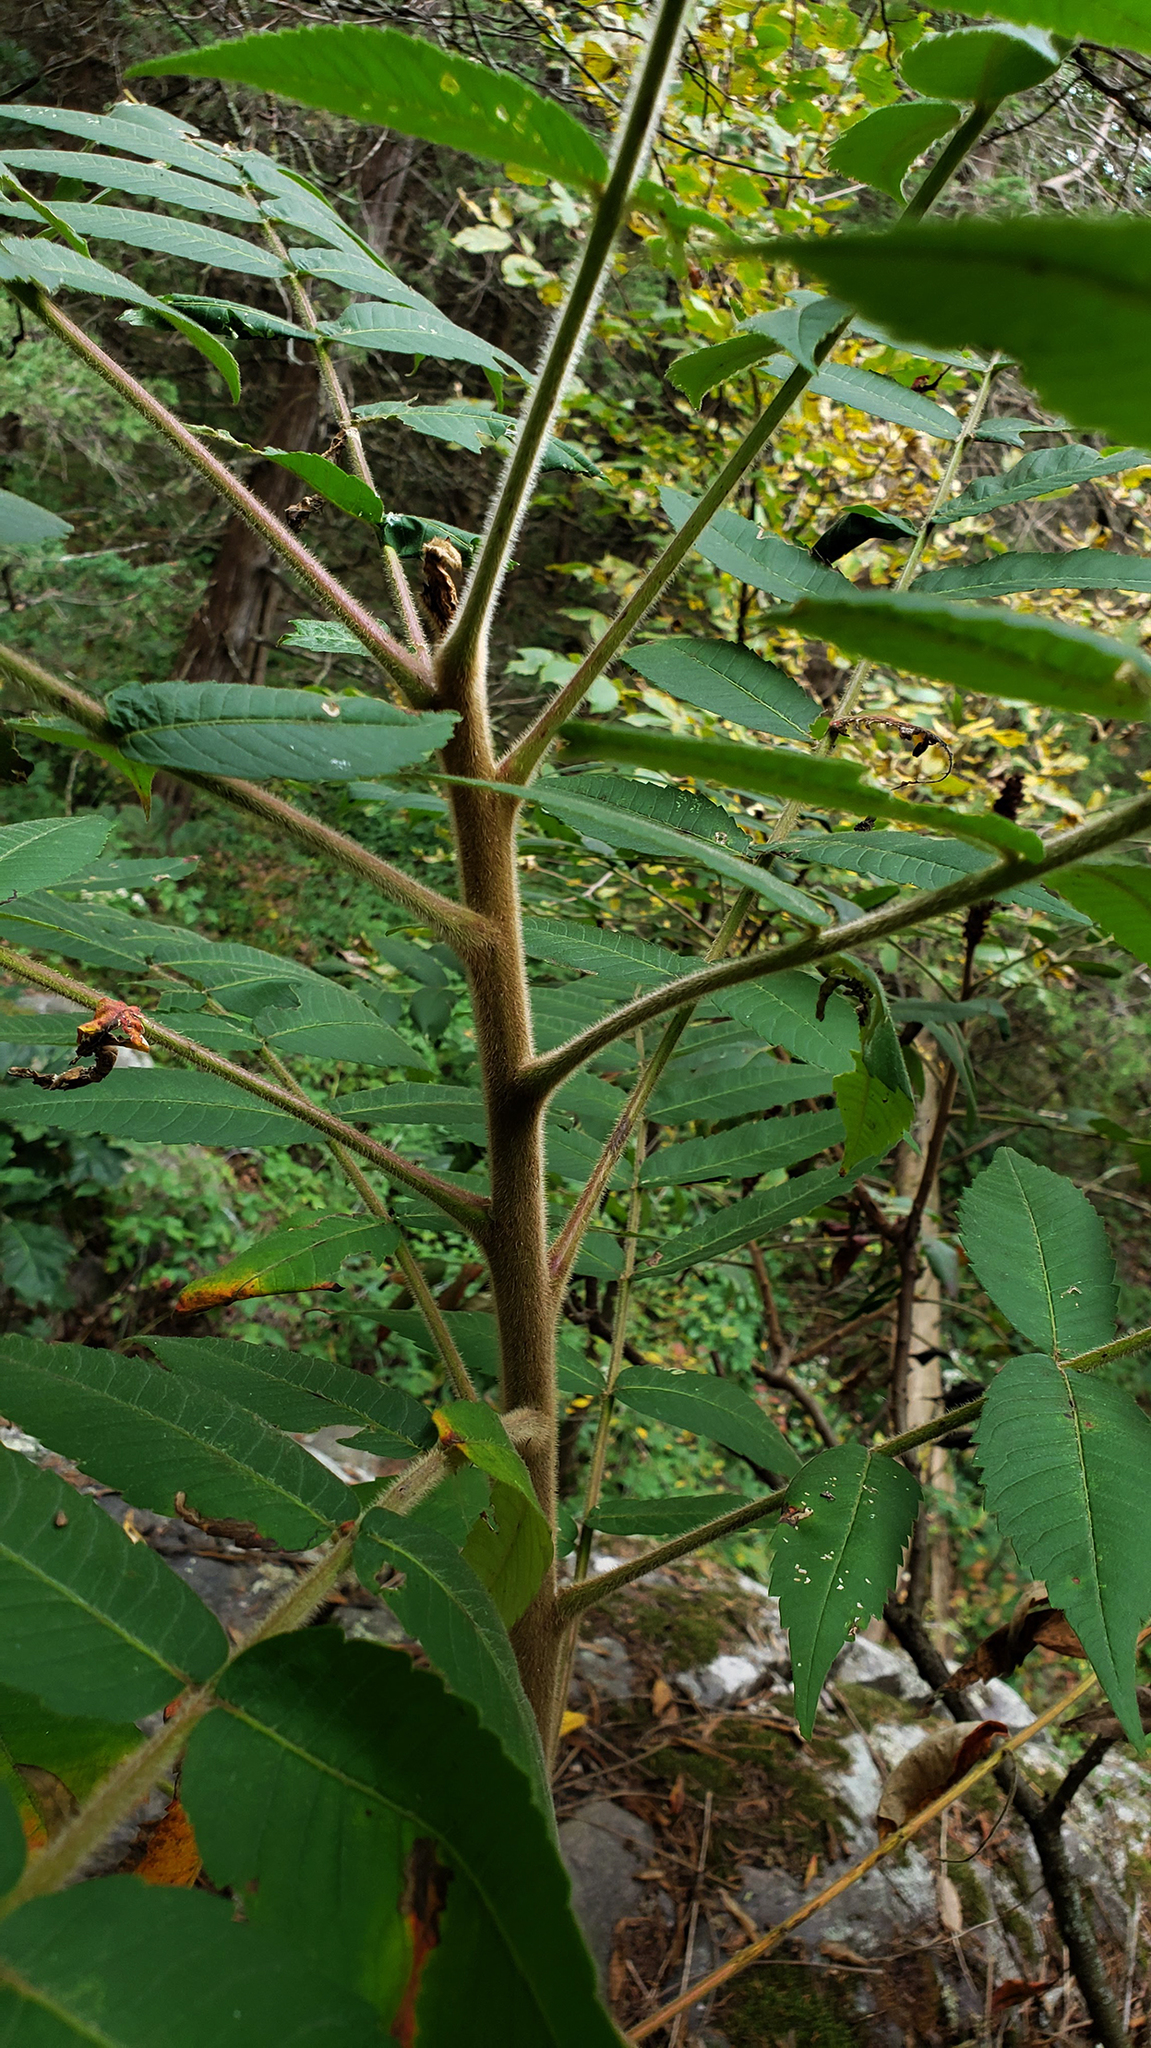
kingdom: Plantae
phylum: Tracheophyta
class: Magnoliopsida
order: Sapindales
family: Anacardiaceae
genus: Rhus
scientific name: Rhus typhina
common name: Staghorn sumac
